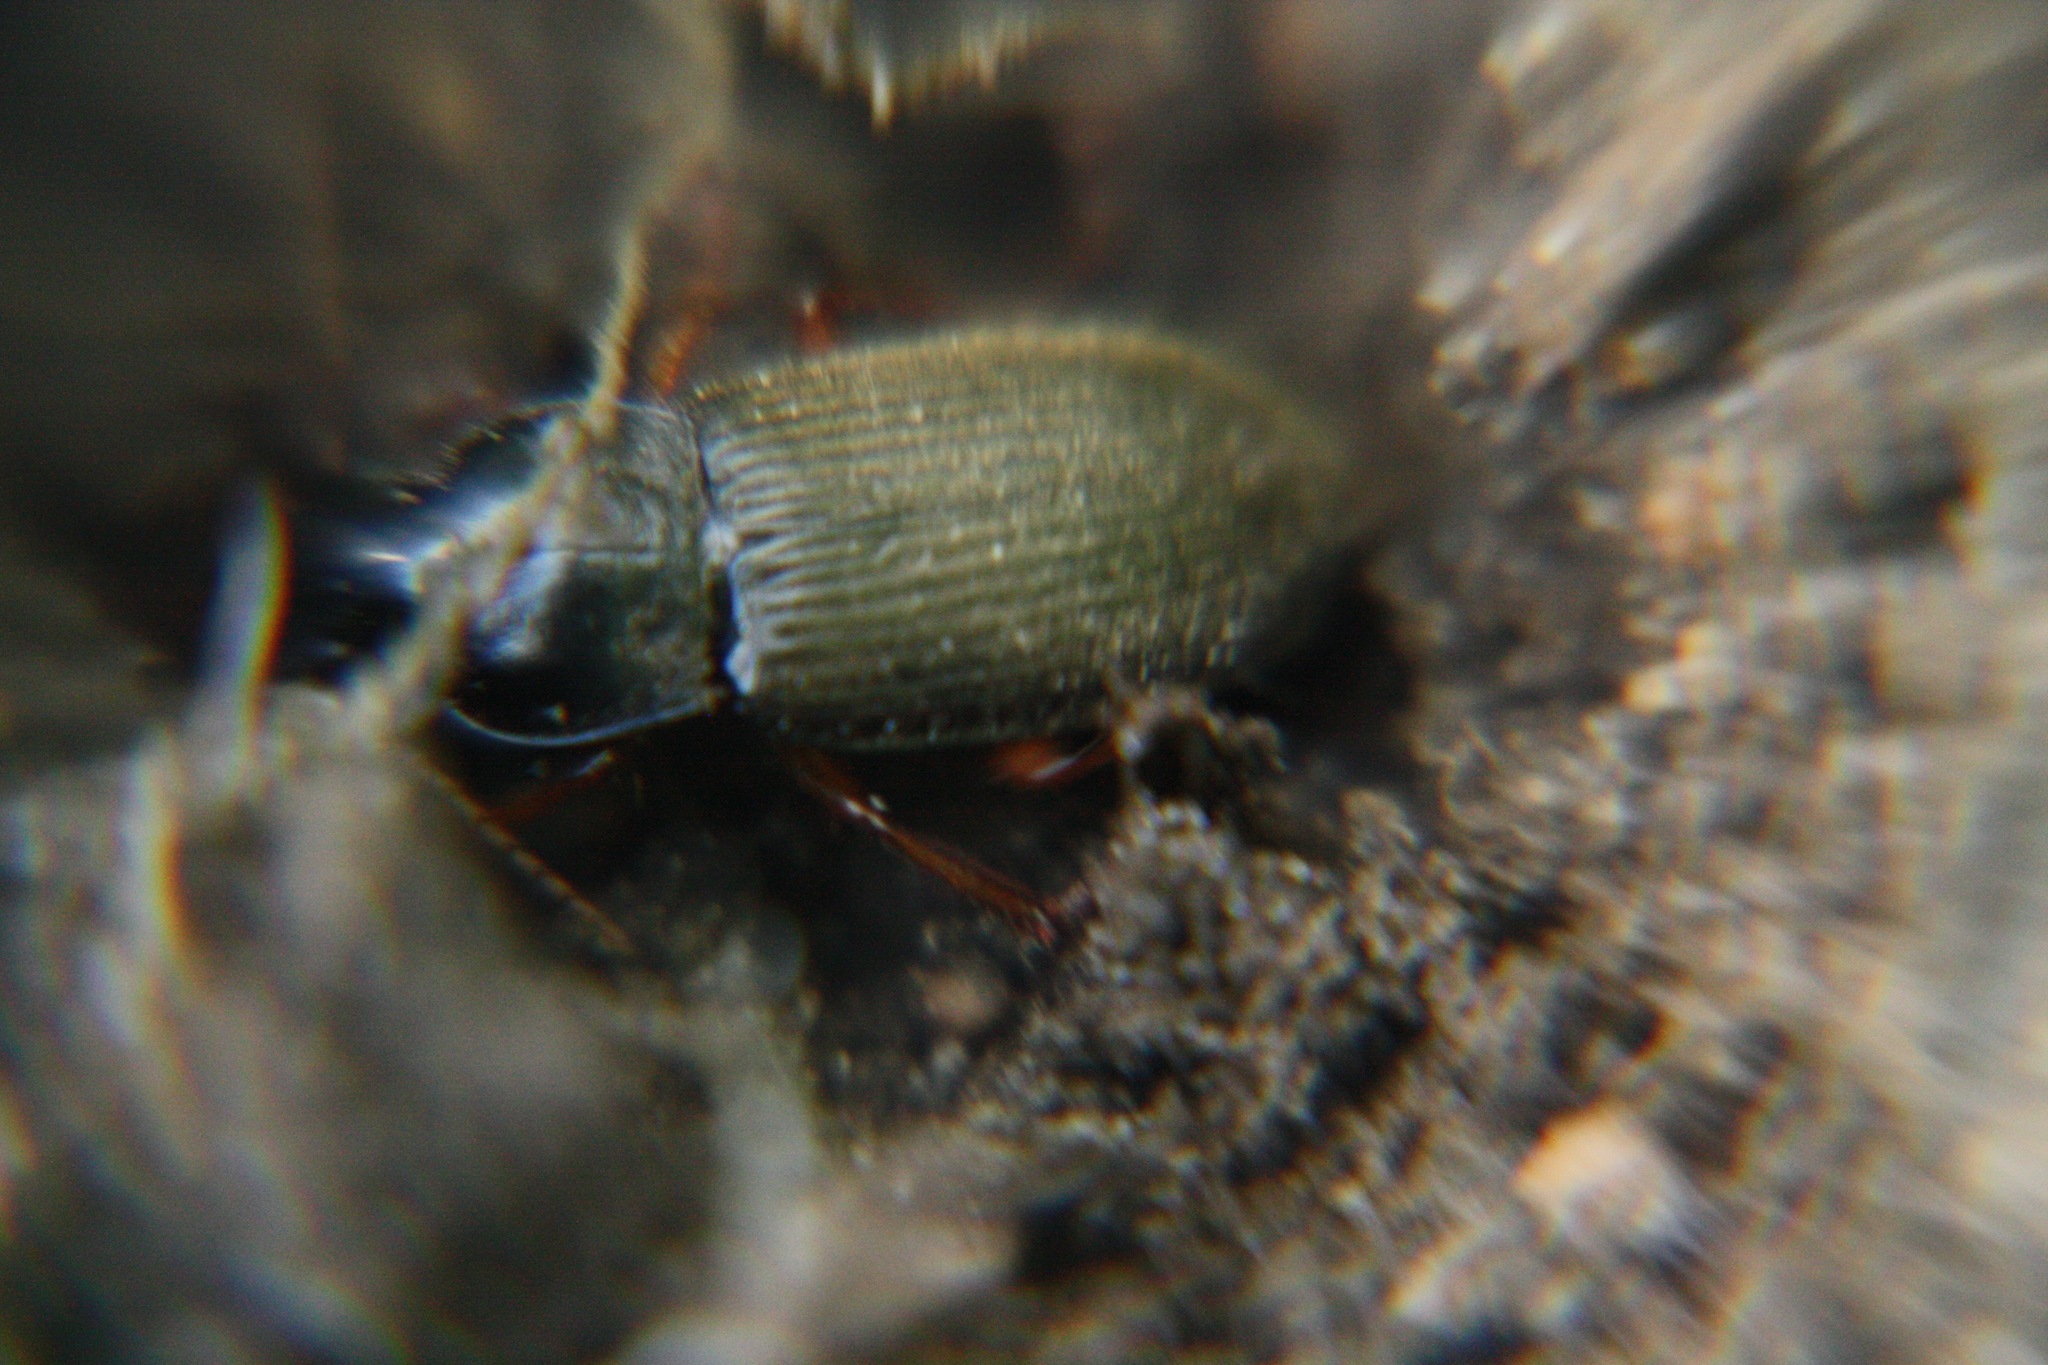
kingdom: Animalia
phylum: Arthropoda
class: Insecta
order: Coleoptera
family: Carabidae
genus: Harpalus
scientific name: Harpalus rufipes
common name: Strawberry harp ground beetle
